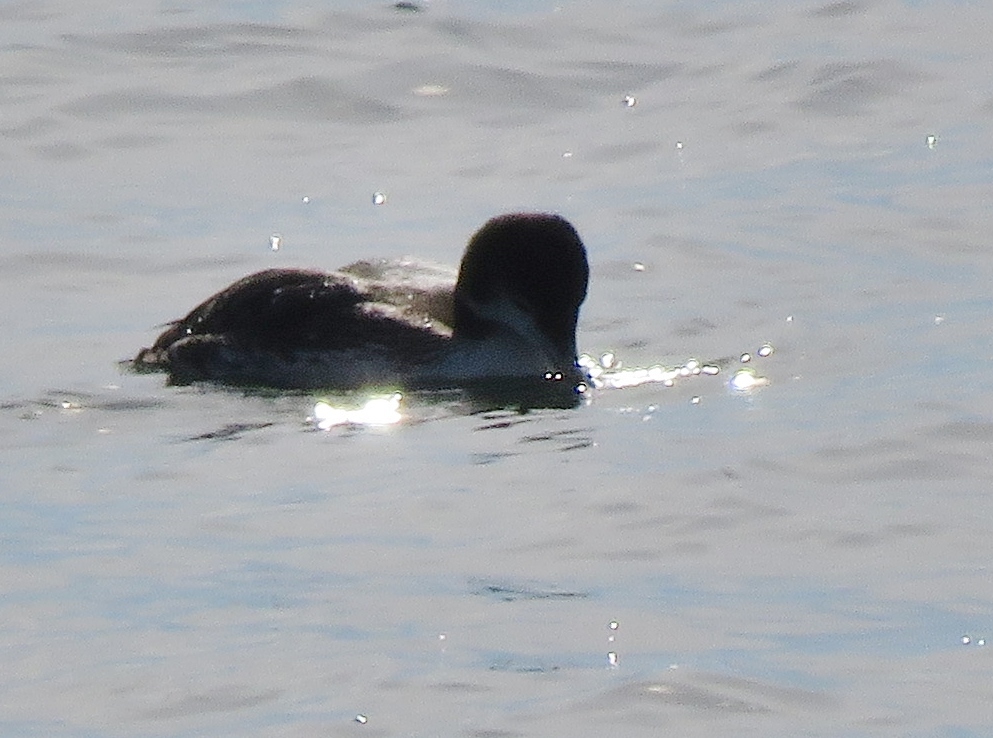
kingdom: Animalia
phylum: Chordata
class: Aves
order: Gaviiformes
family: Gaviidae
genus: Gavia
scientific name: Gavia immer
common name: Common loon
